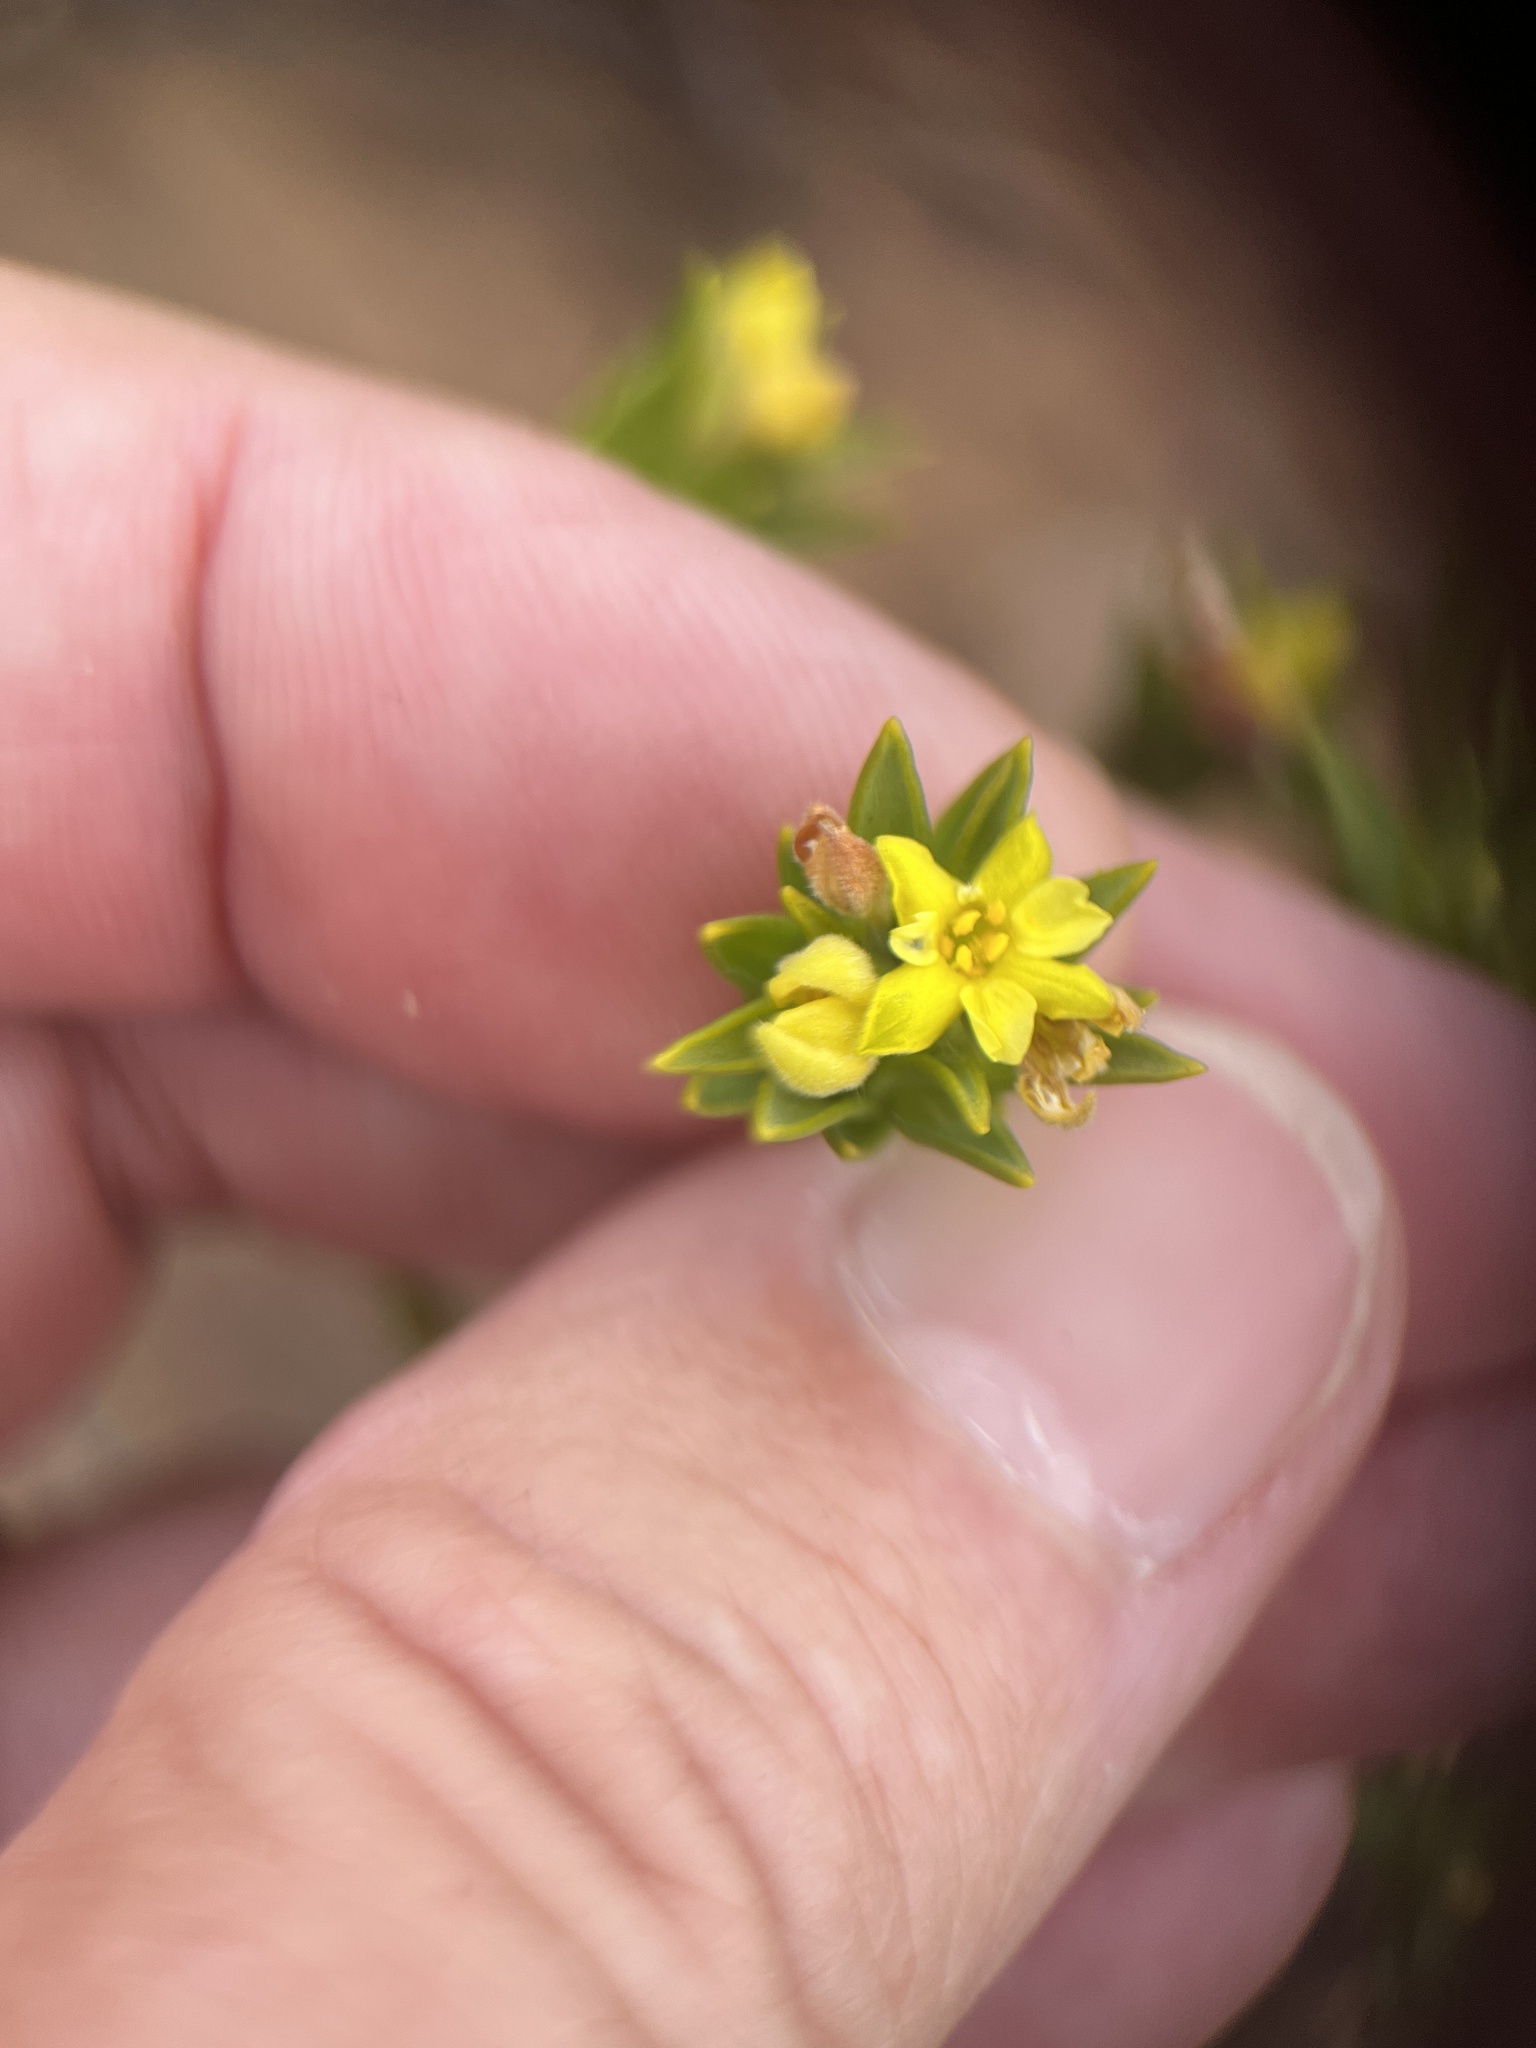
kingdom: Plantae
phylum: Tracheophyta
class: Magnoliopsida
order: Malvales
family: Thymelaeaceae
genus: Gnidia
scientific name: Gnidia juniperifolia
